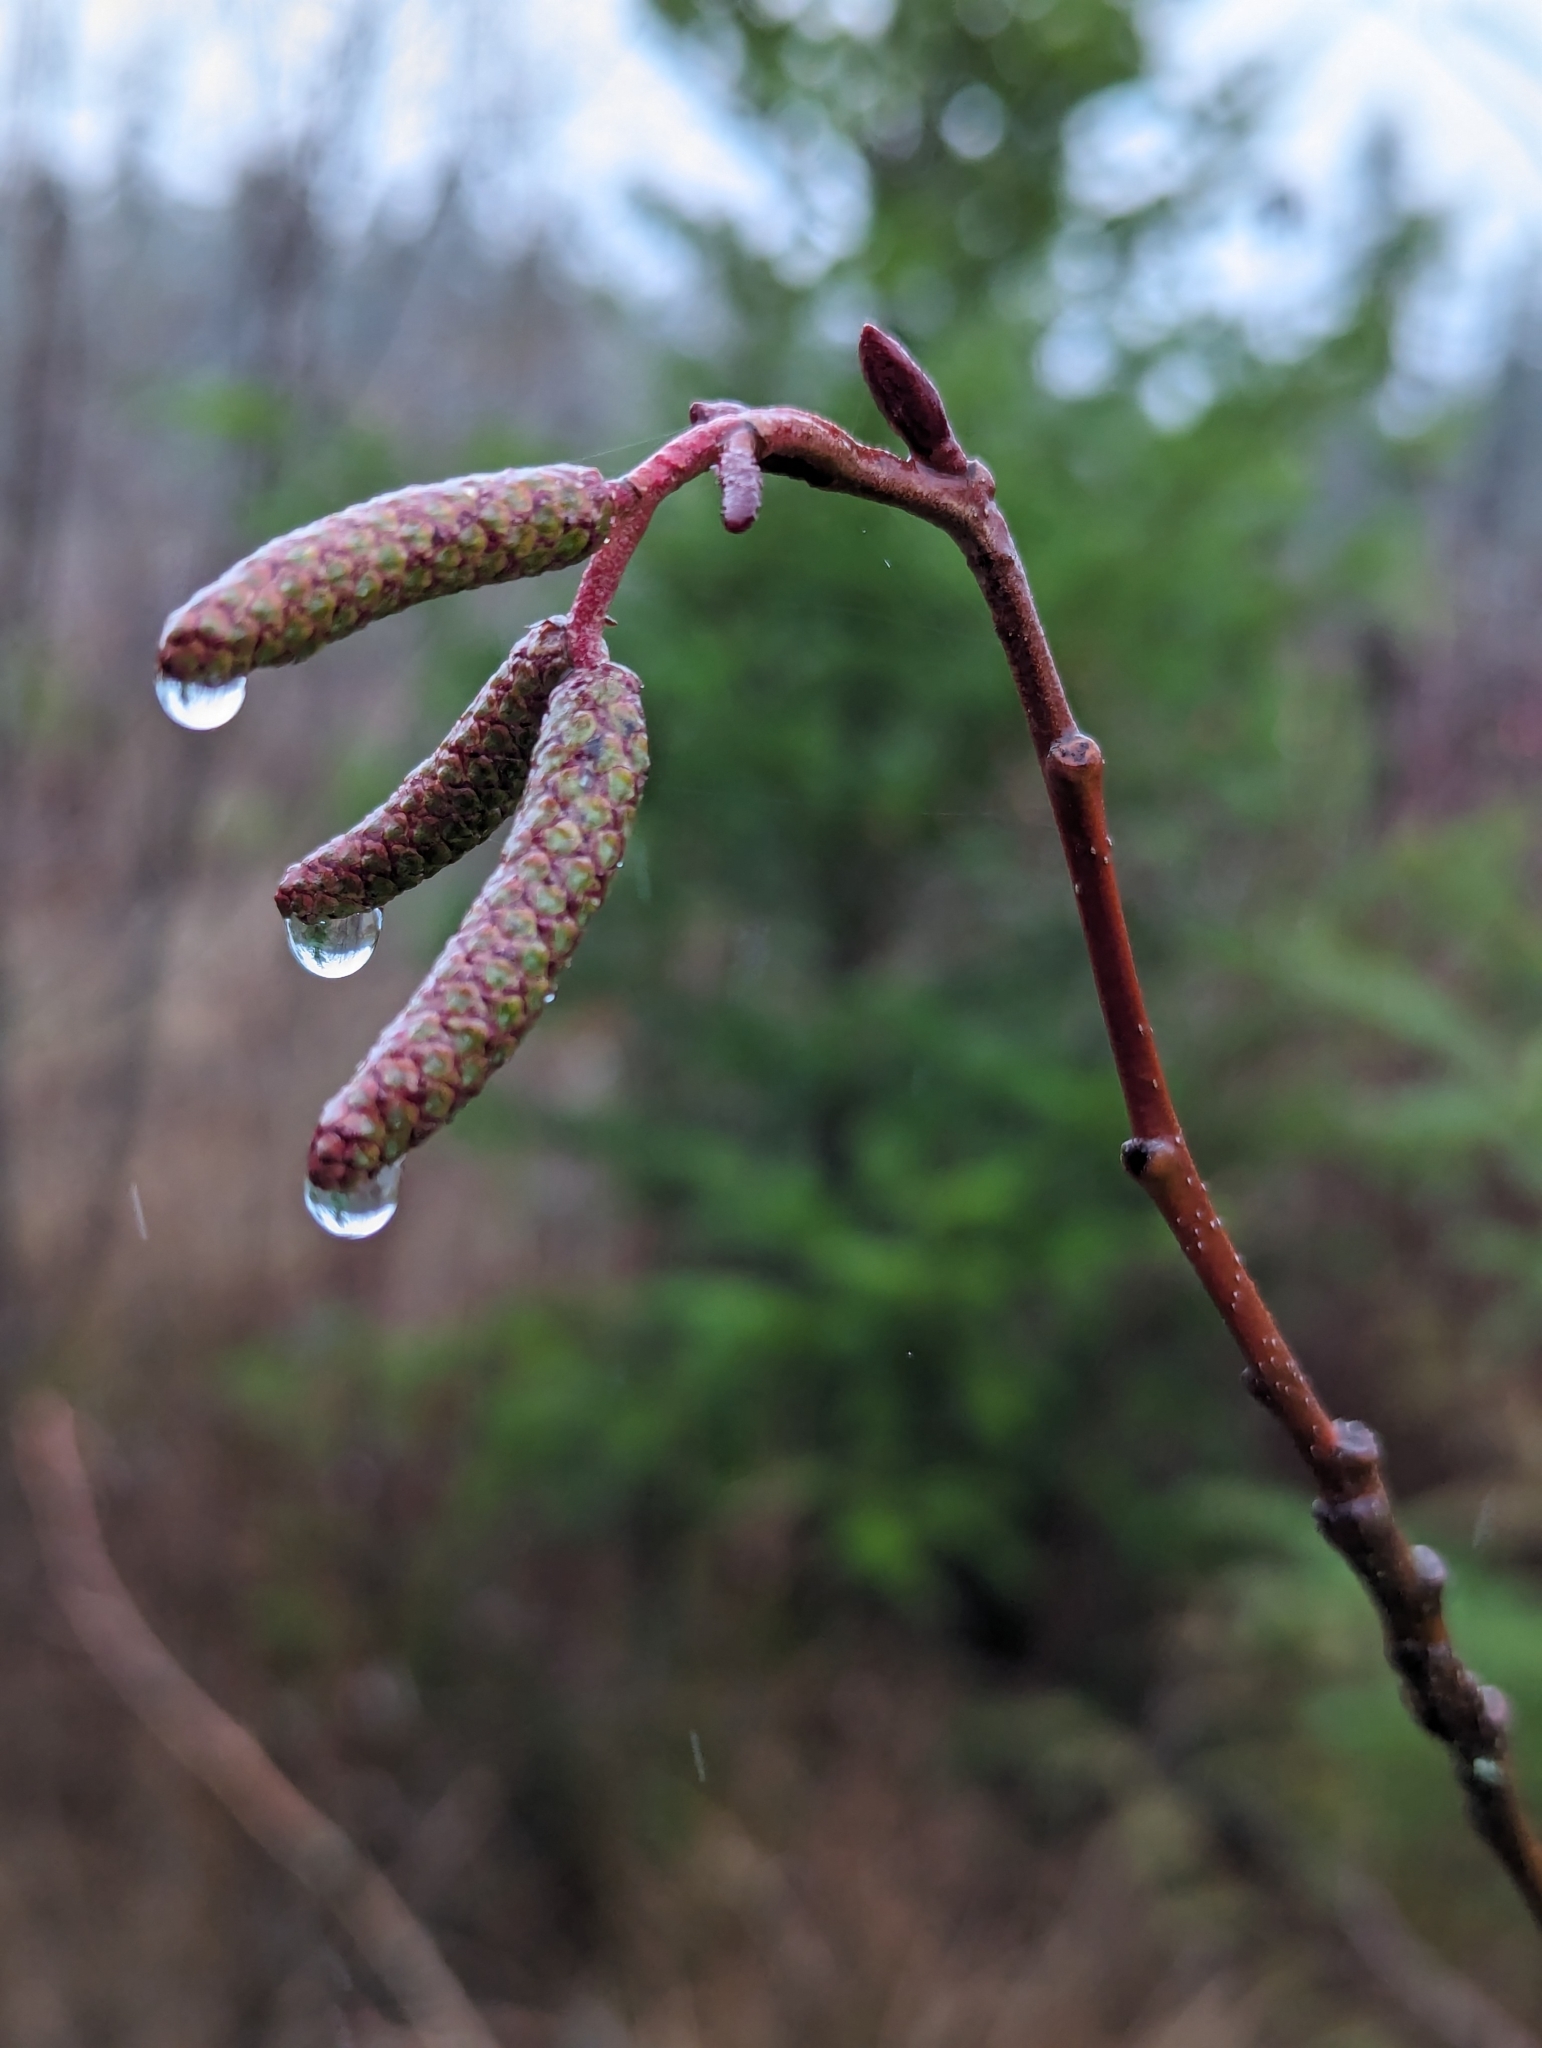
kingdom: Plantae
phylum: Tracheophyta
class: Magnoliopsida
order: Fagales
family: Betulaceae
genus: Alnus
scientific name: Alnus rubra
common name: Red alder
